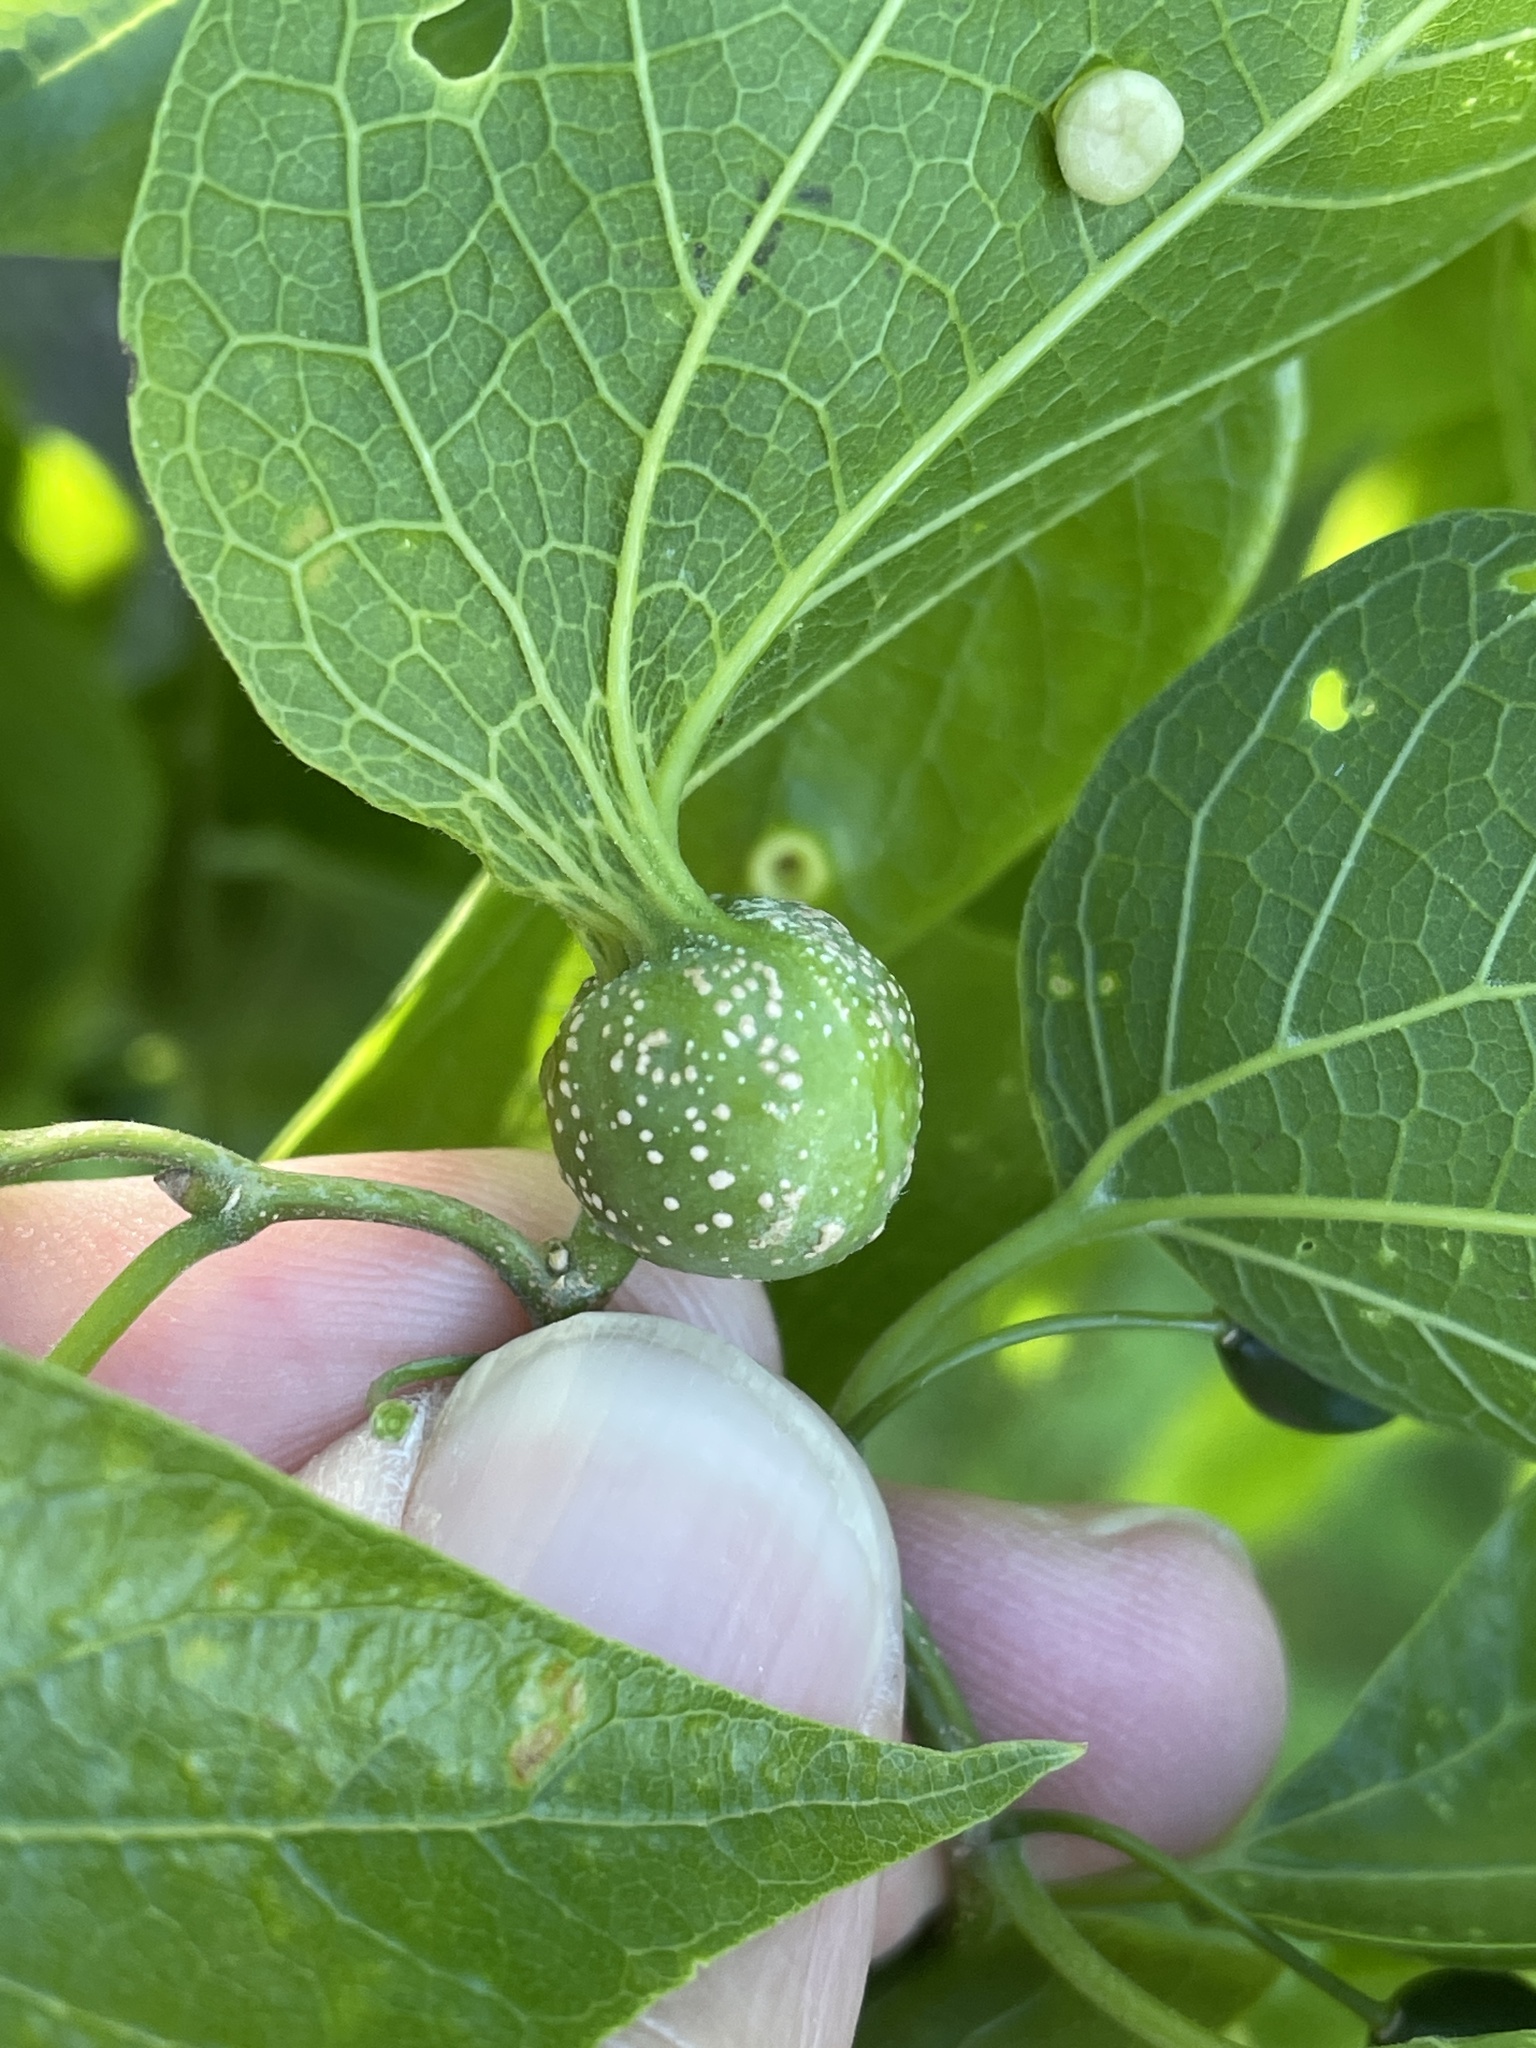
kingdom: Animalia
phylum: Arthropoda
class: Insecta
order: Hemiptera
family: Aphalaridae
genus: Pachypsylla
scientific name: Pachypsylla venusta
